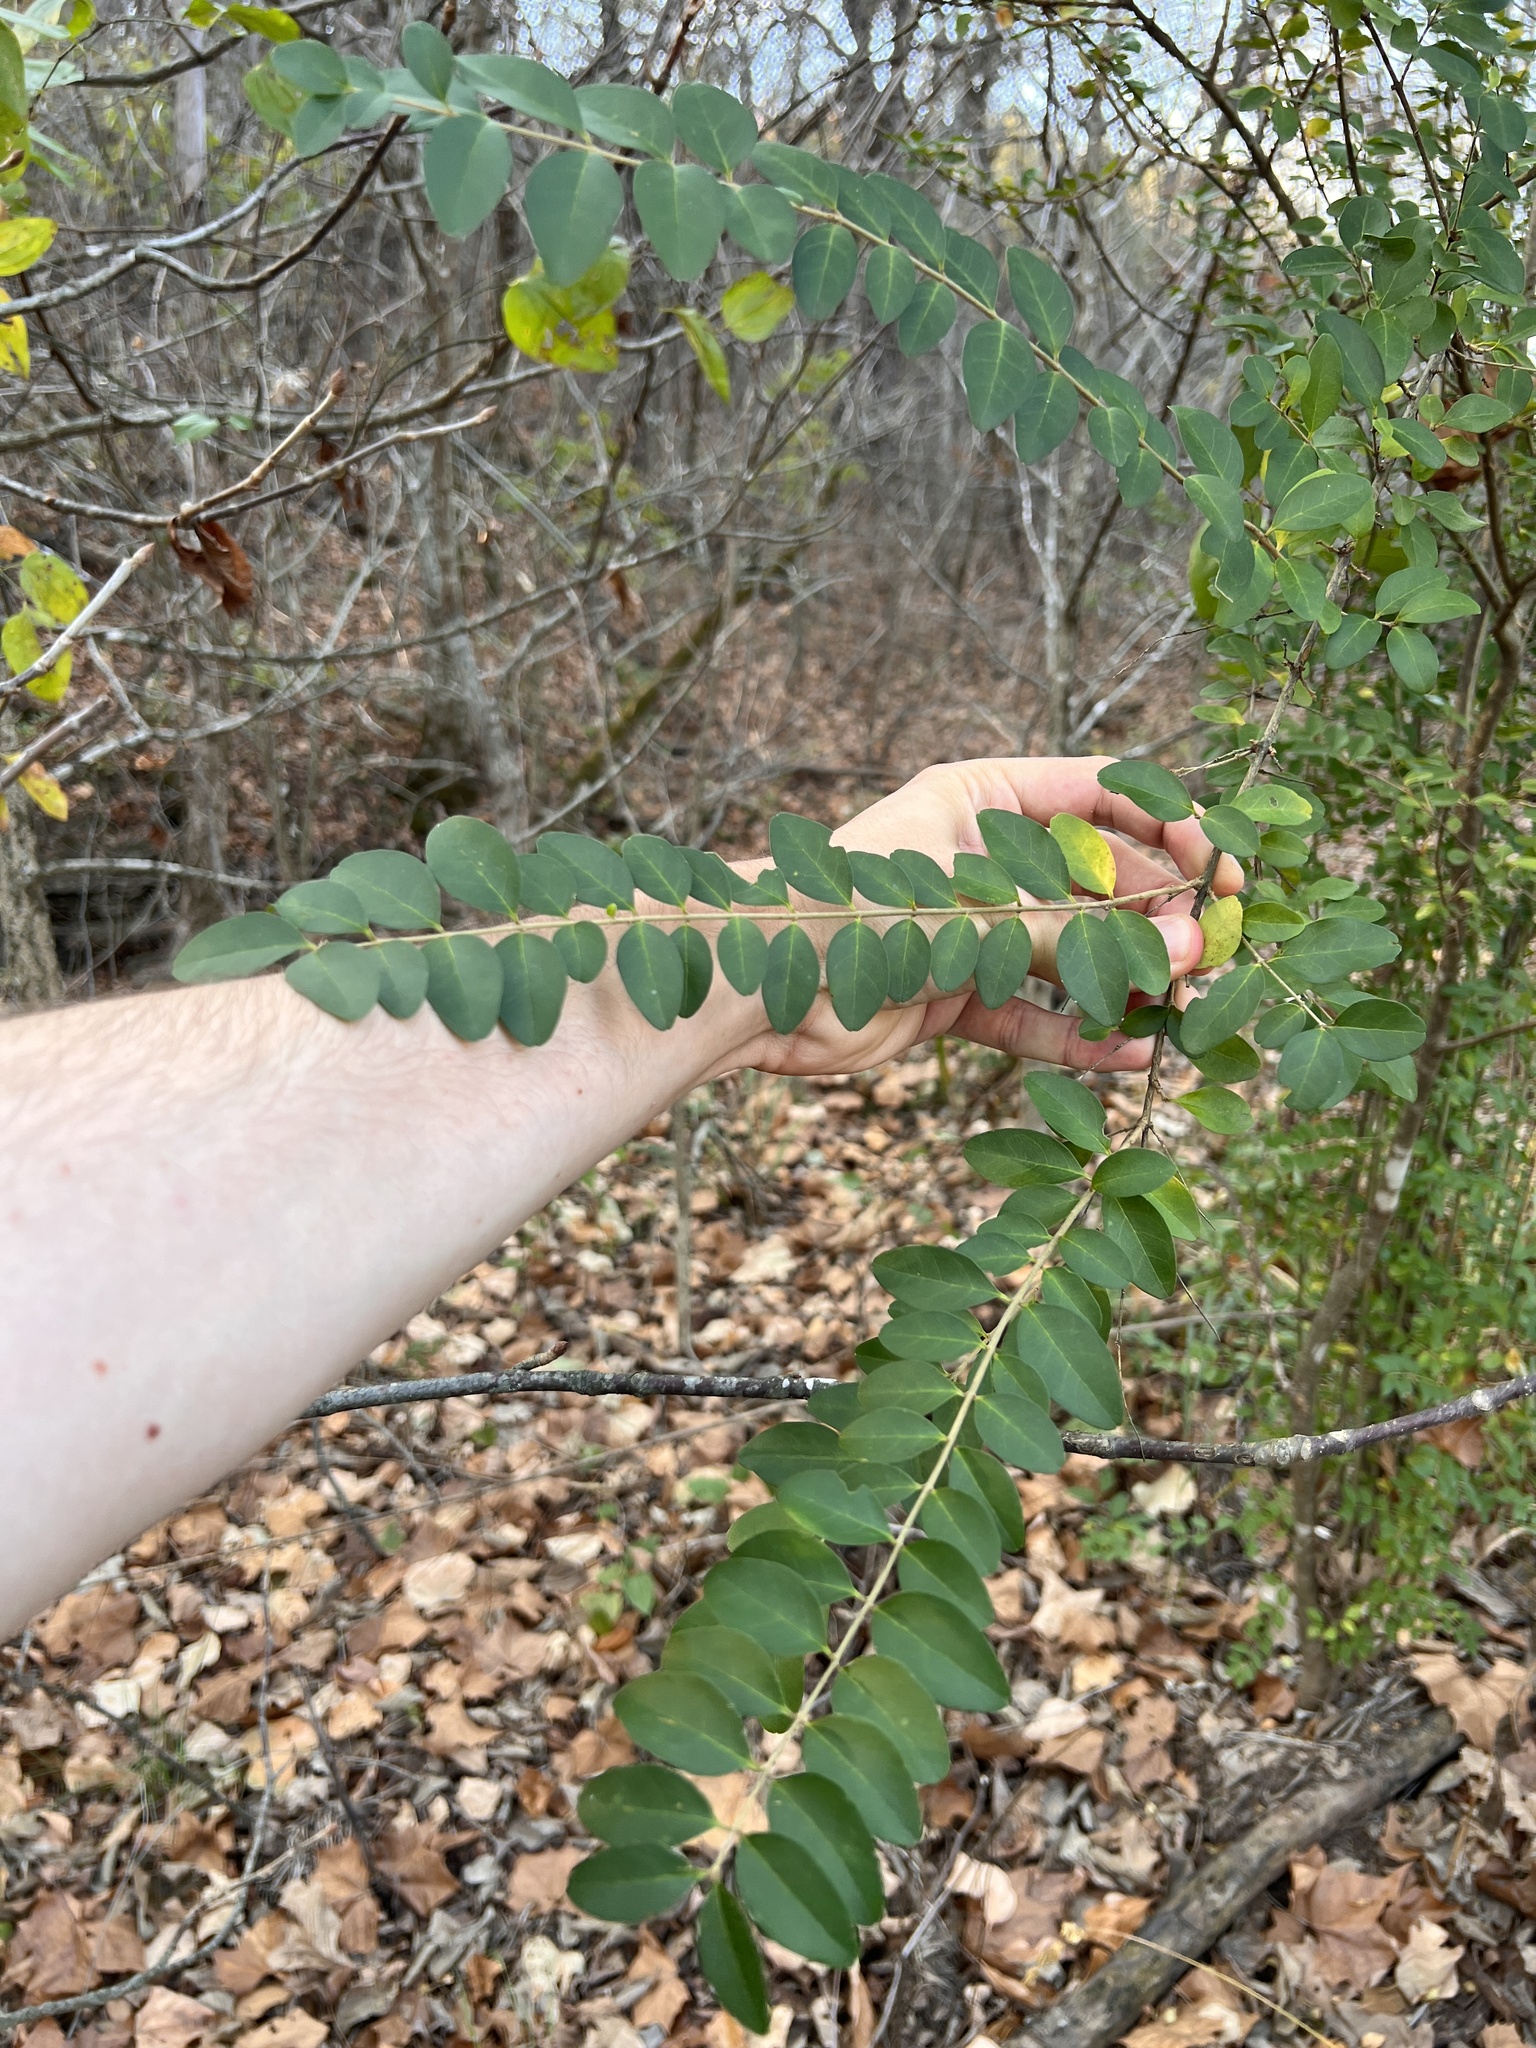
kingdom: Plantae
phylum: Tracheophyta
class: Magnoliopsida
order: Lamiales
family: Oleaceae
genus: Ligustrum
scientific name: Ligustrum sinense
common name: Chinese privet
